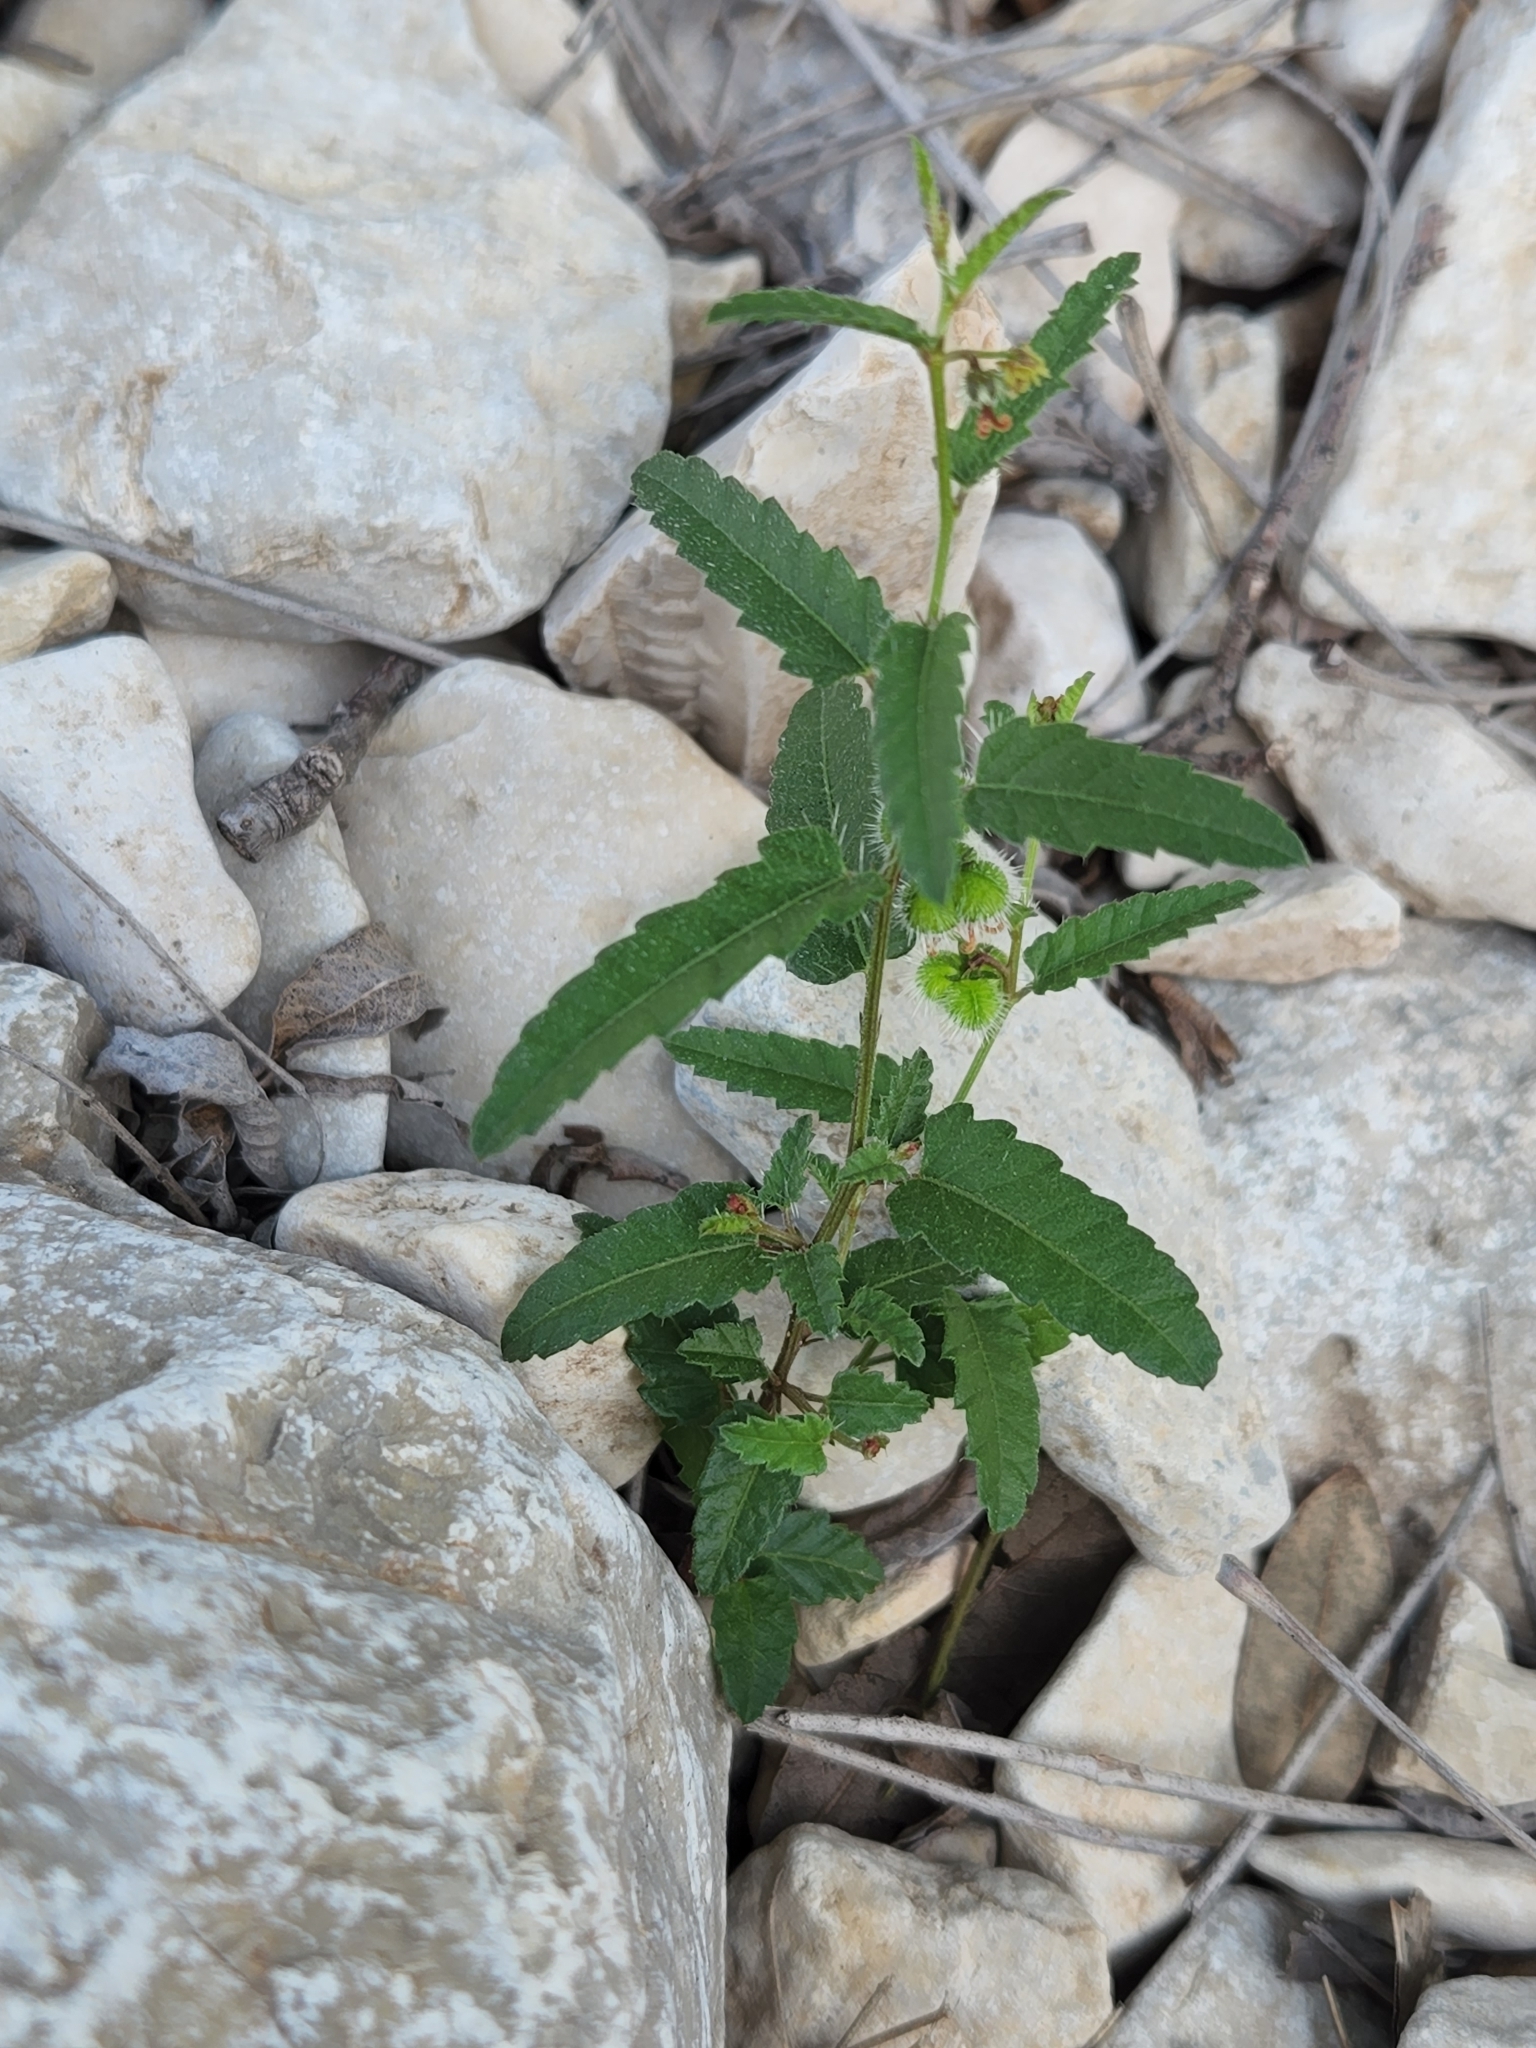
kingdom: Plantae
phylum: Tracheophyta
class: Magnoliopsida
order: Malpighiales
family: Euphorbiaceae
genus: Tragia
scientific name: Tragia ramosa
